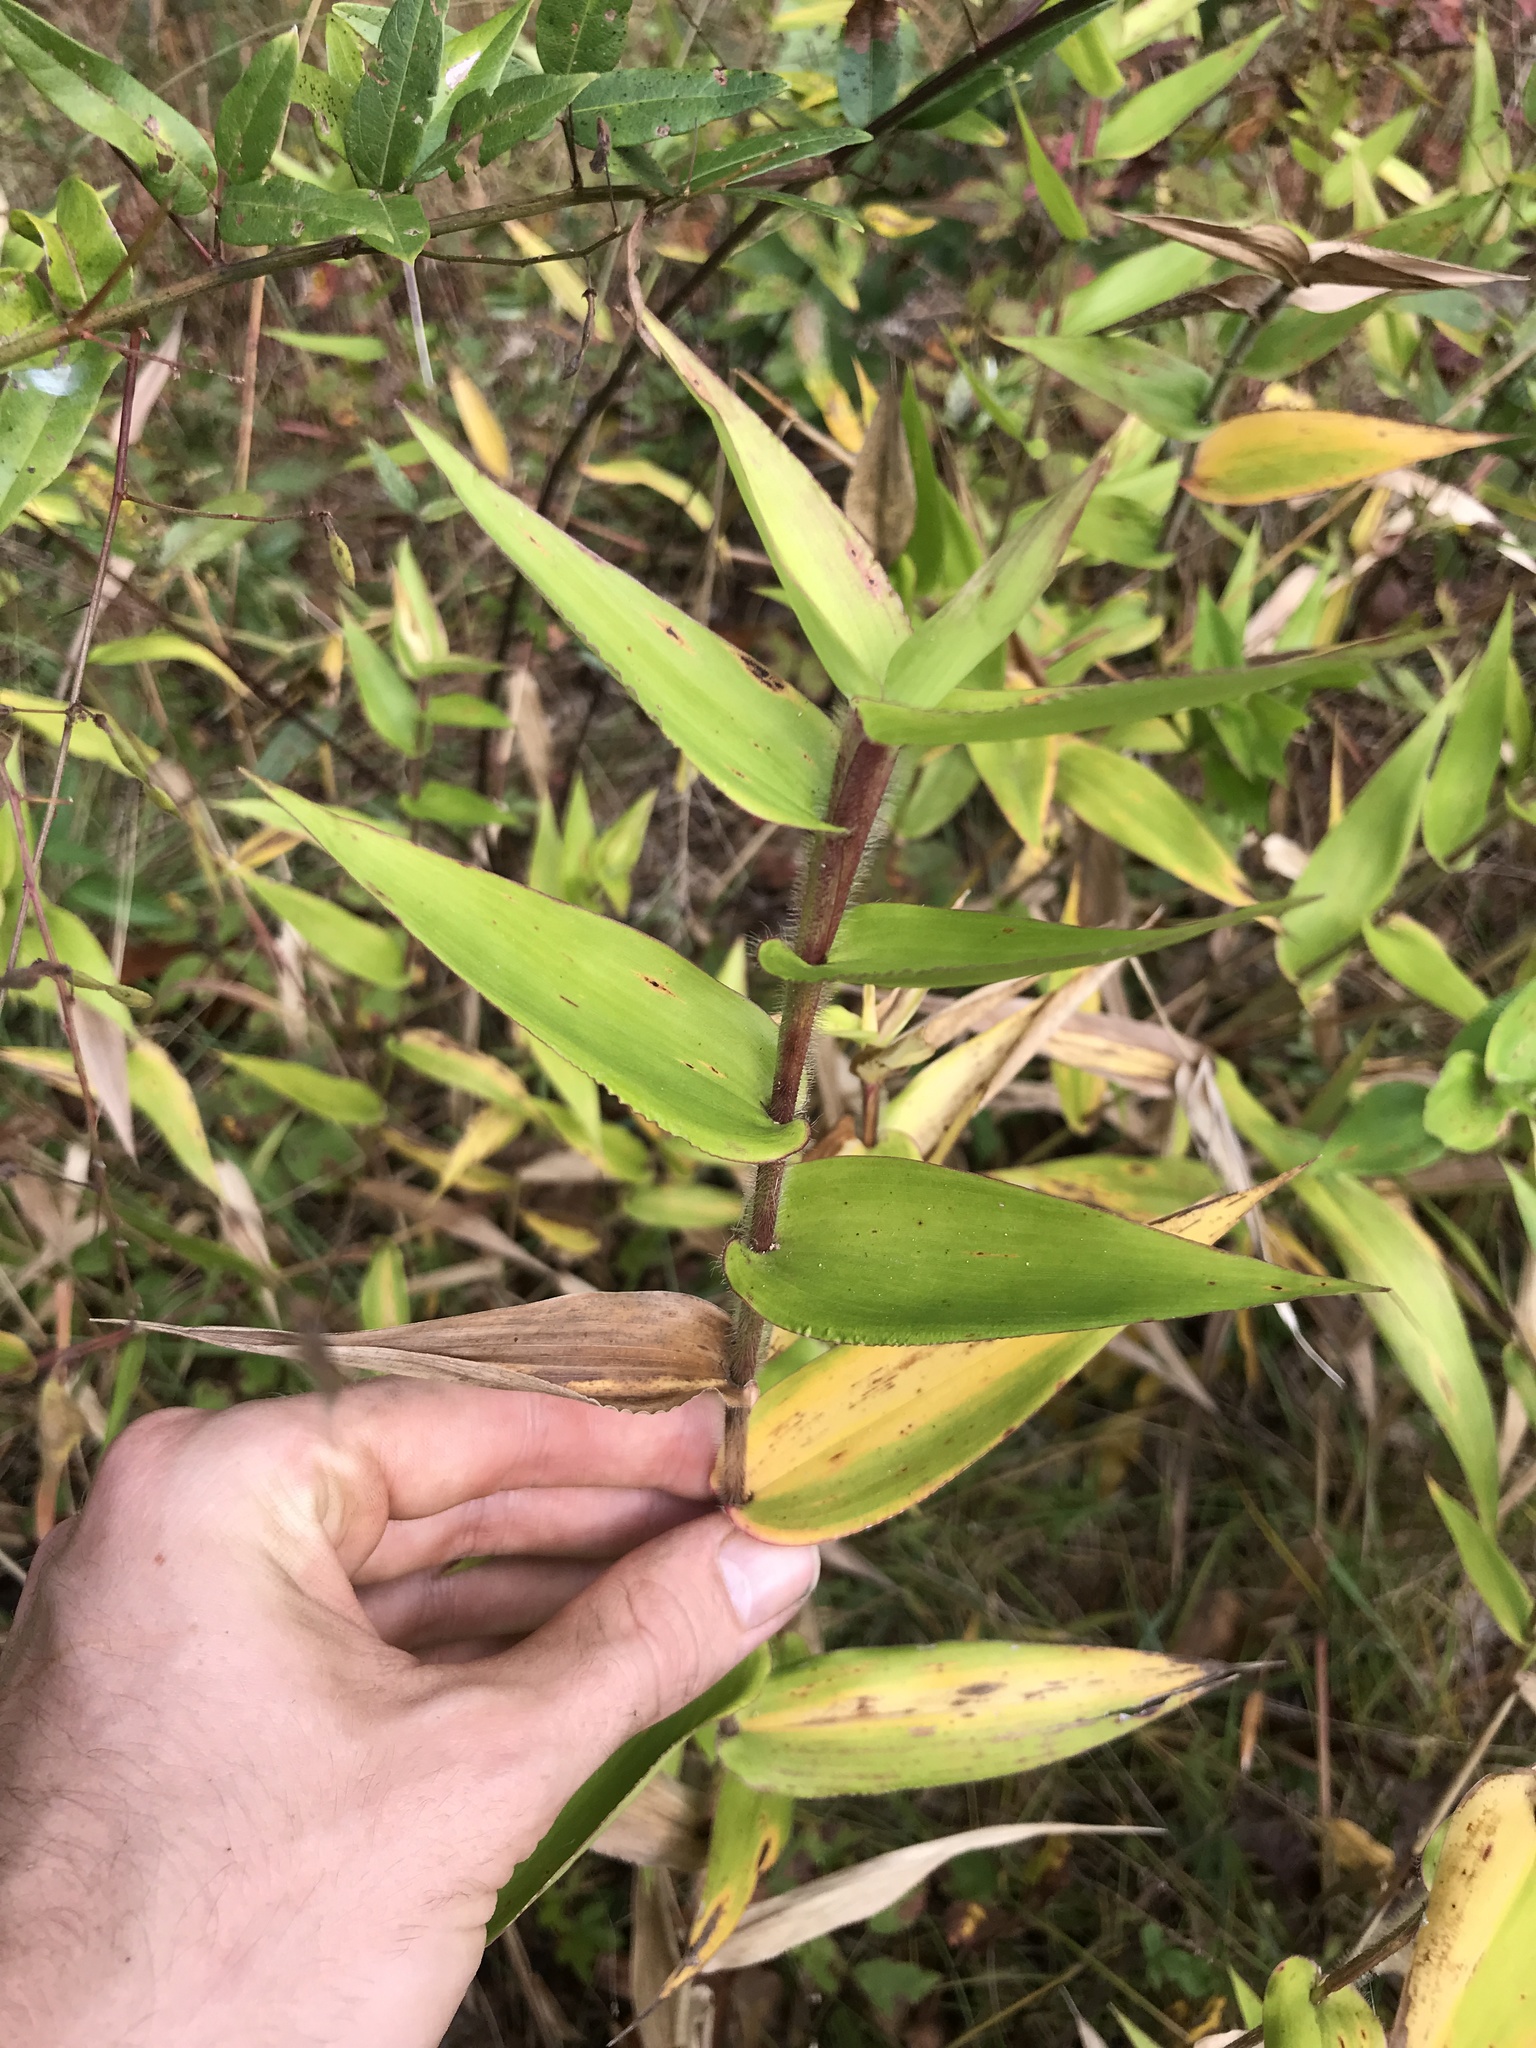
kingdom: Plantae
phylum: Tracheophyta
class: Liliopsida
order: Poales
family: Poaceae
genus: Dichanthelium
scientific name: Dichanthelium clandestinum
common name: Deer-tongue grass
